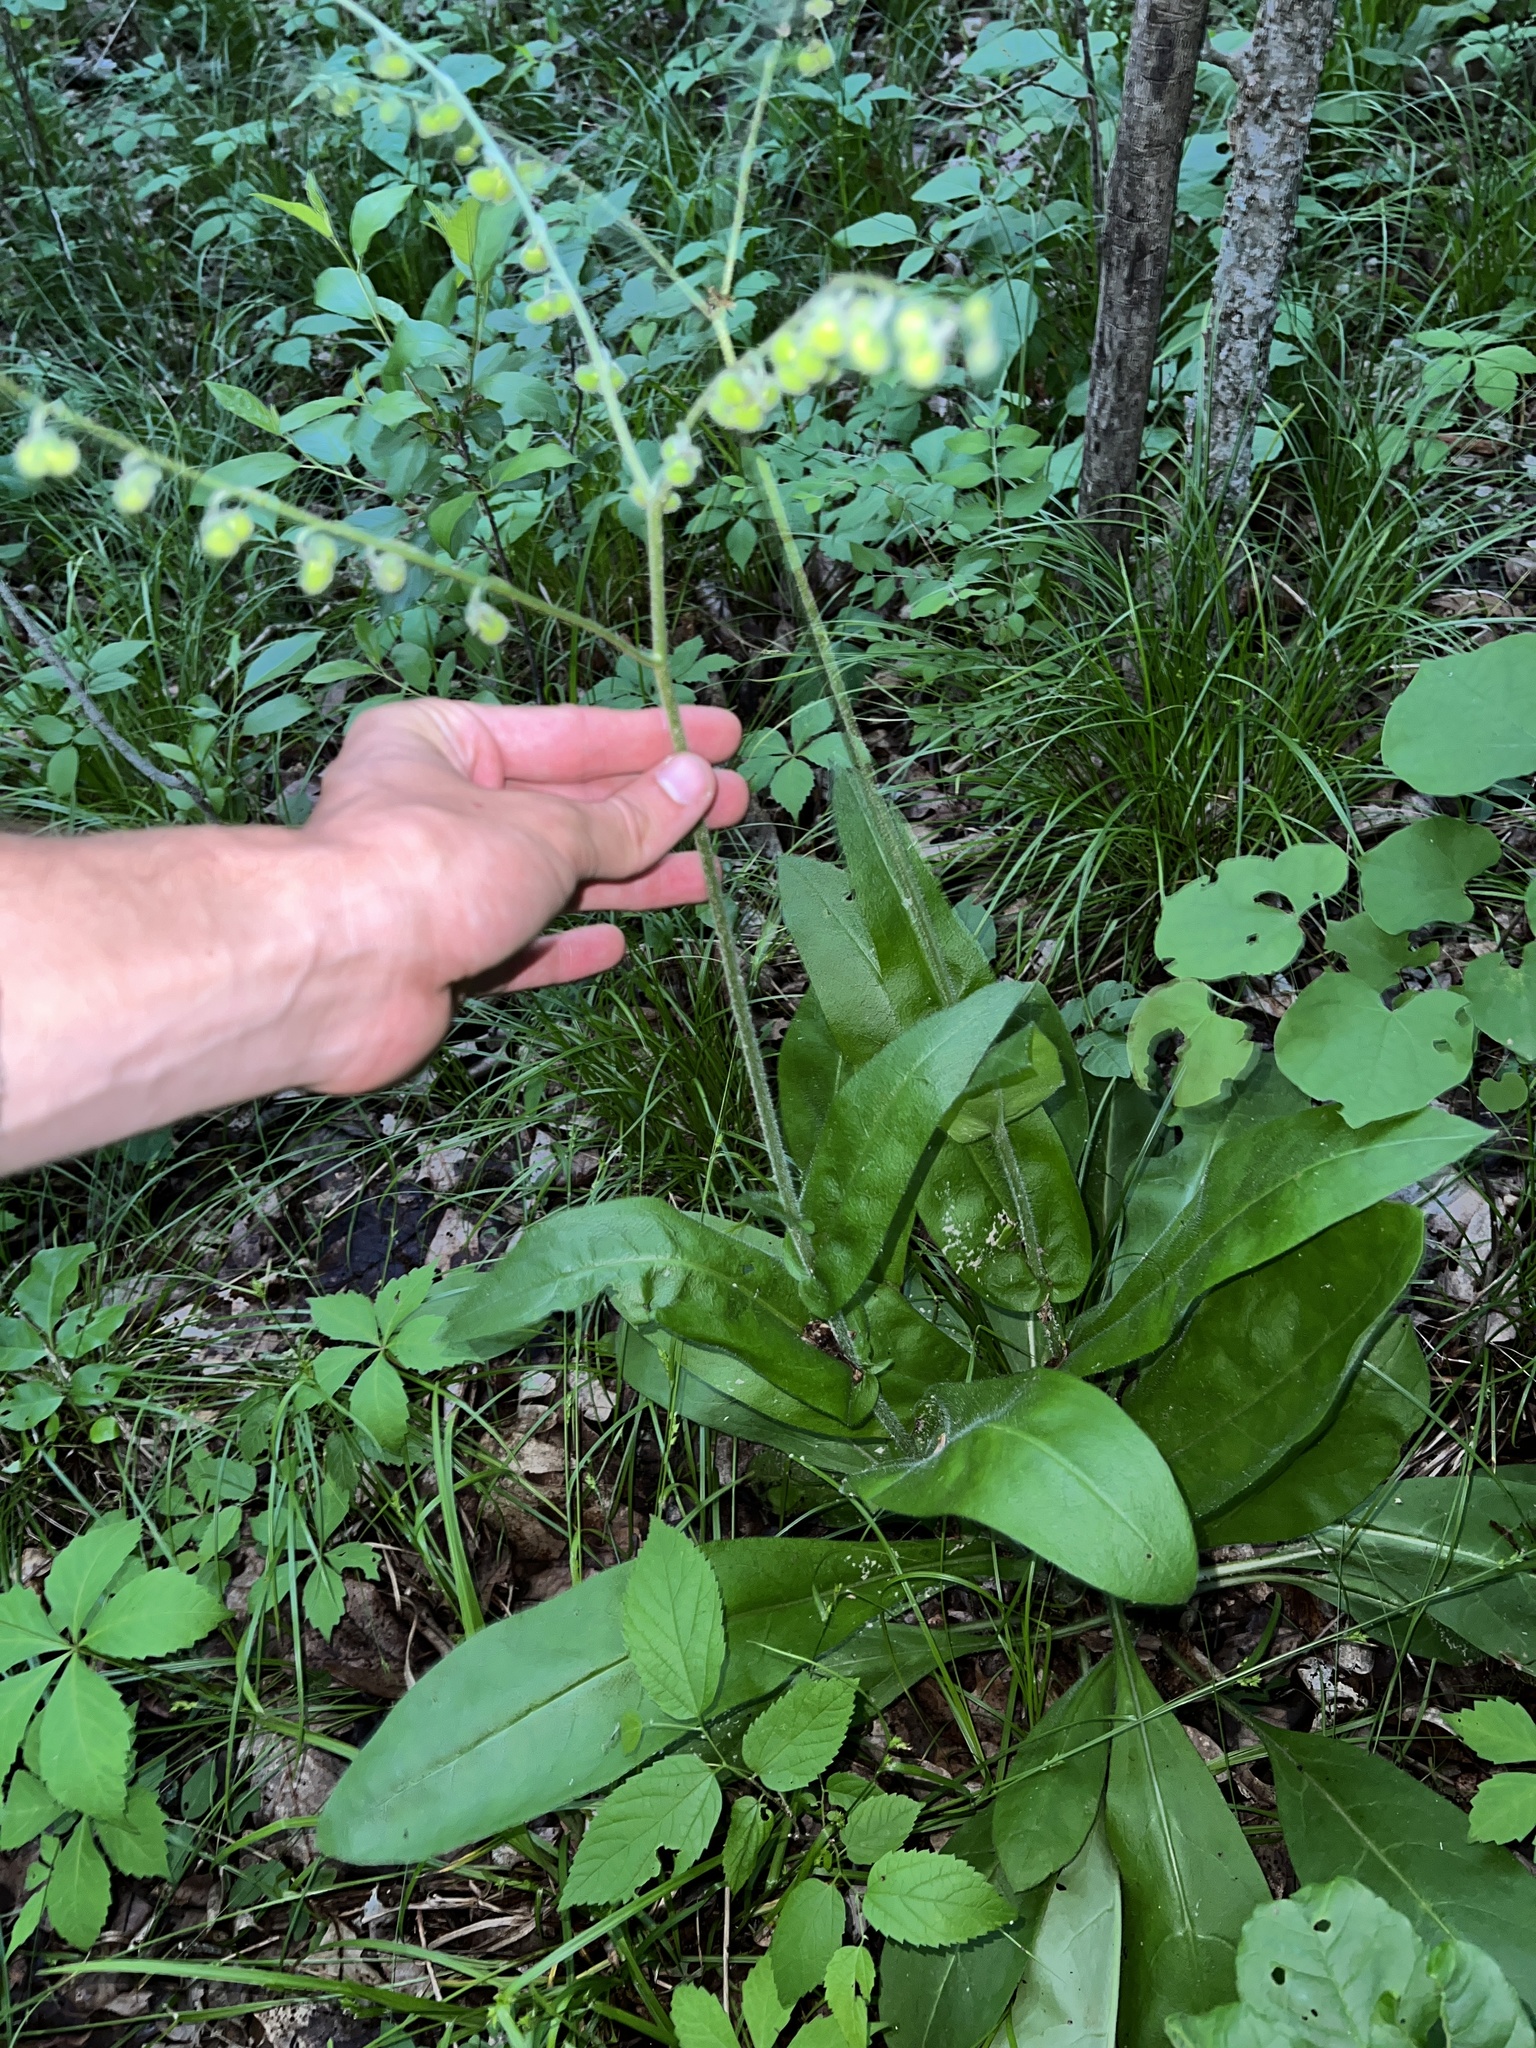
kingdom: Plantae
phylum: Tracheophyta
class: Magnoliopsida
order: Boraginales
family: Boraginaceae
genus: Andersonglossum
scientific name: Andersonglossum virginianum
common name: Wild comfrey
